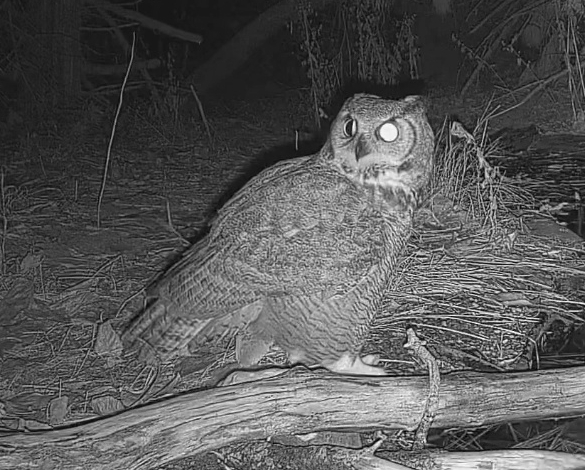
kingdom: Animalia
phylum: Chordata
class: Aves
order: Strigiformes
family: Strigidae
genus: Bubo
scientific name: Bubo virginianus
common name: Great horned owl
